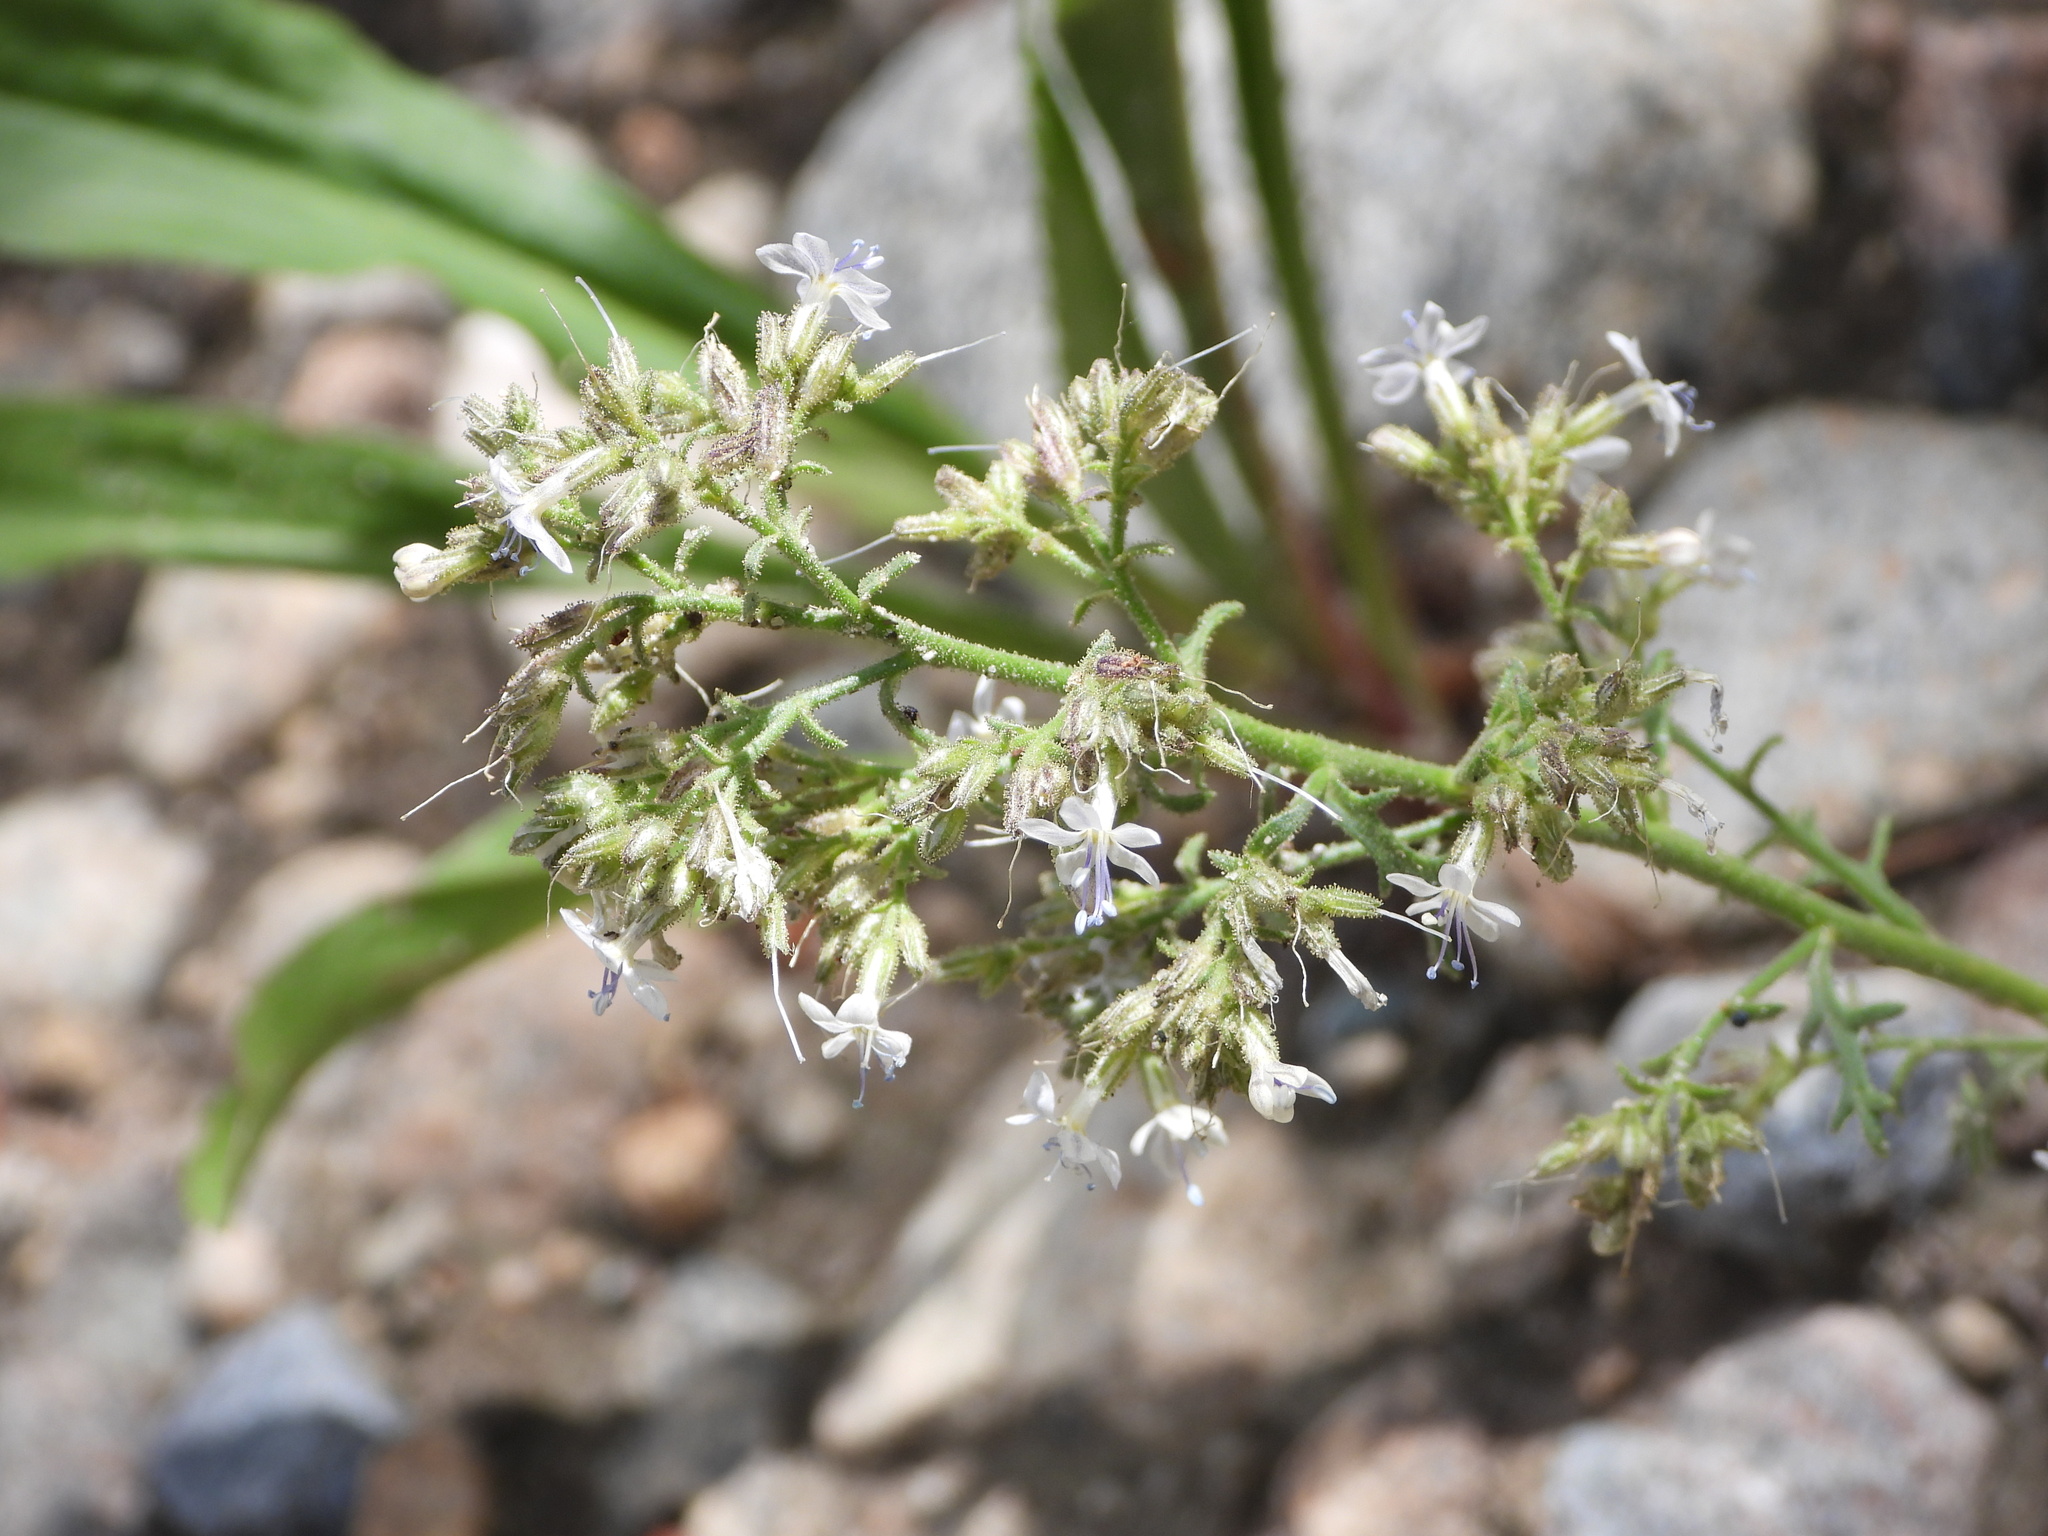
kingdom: Plantae
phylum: Tracheophyta
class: Magnoliopsida
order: Ericales
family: Polemoniaceae
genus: Aliciella
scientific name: Aliciella pinnatifida
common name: Sticky gilia
